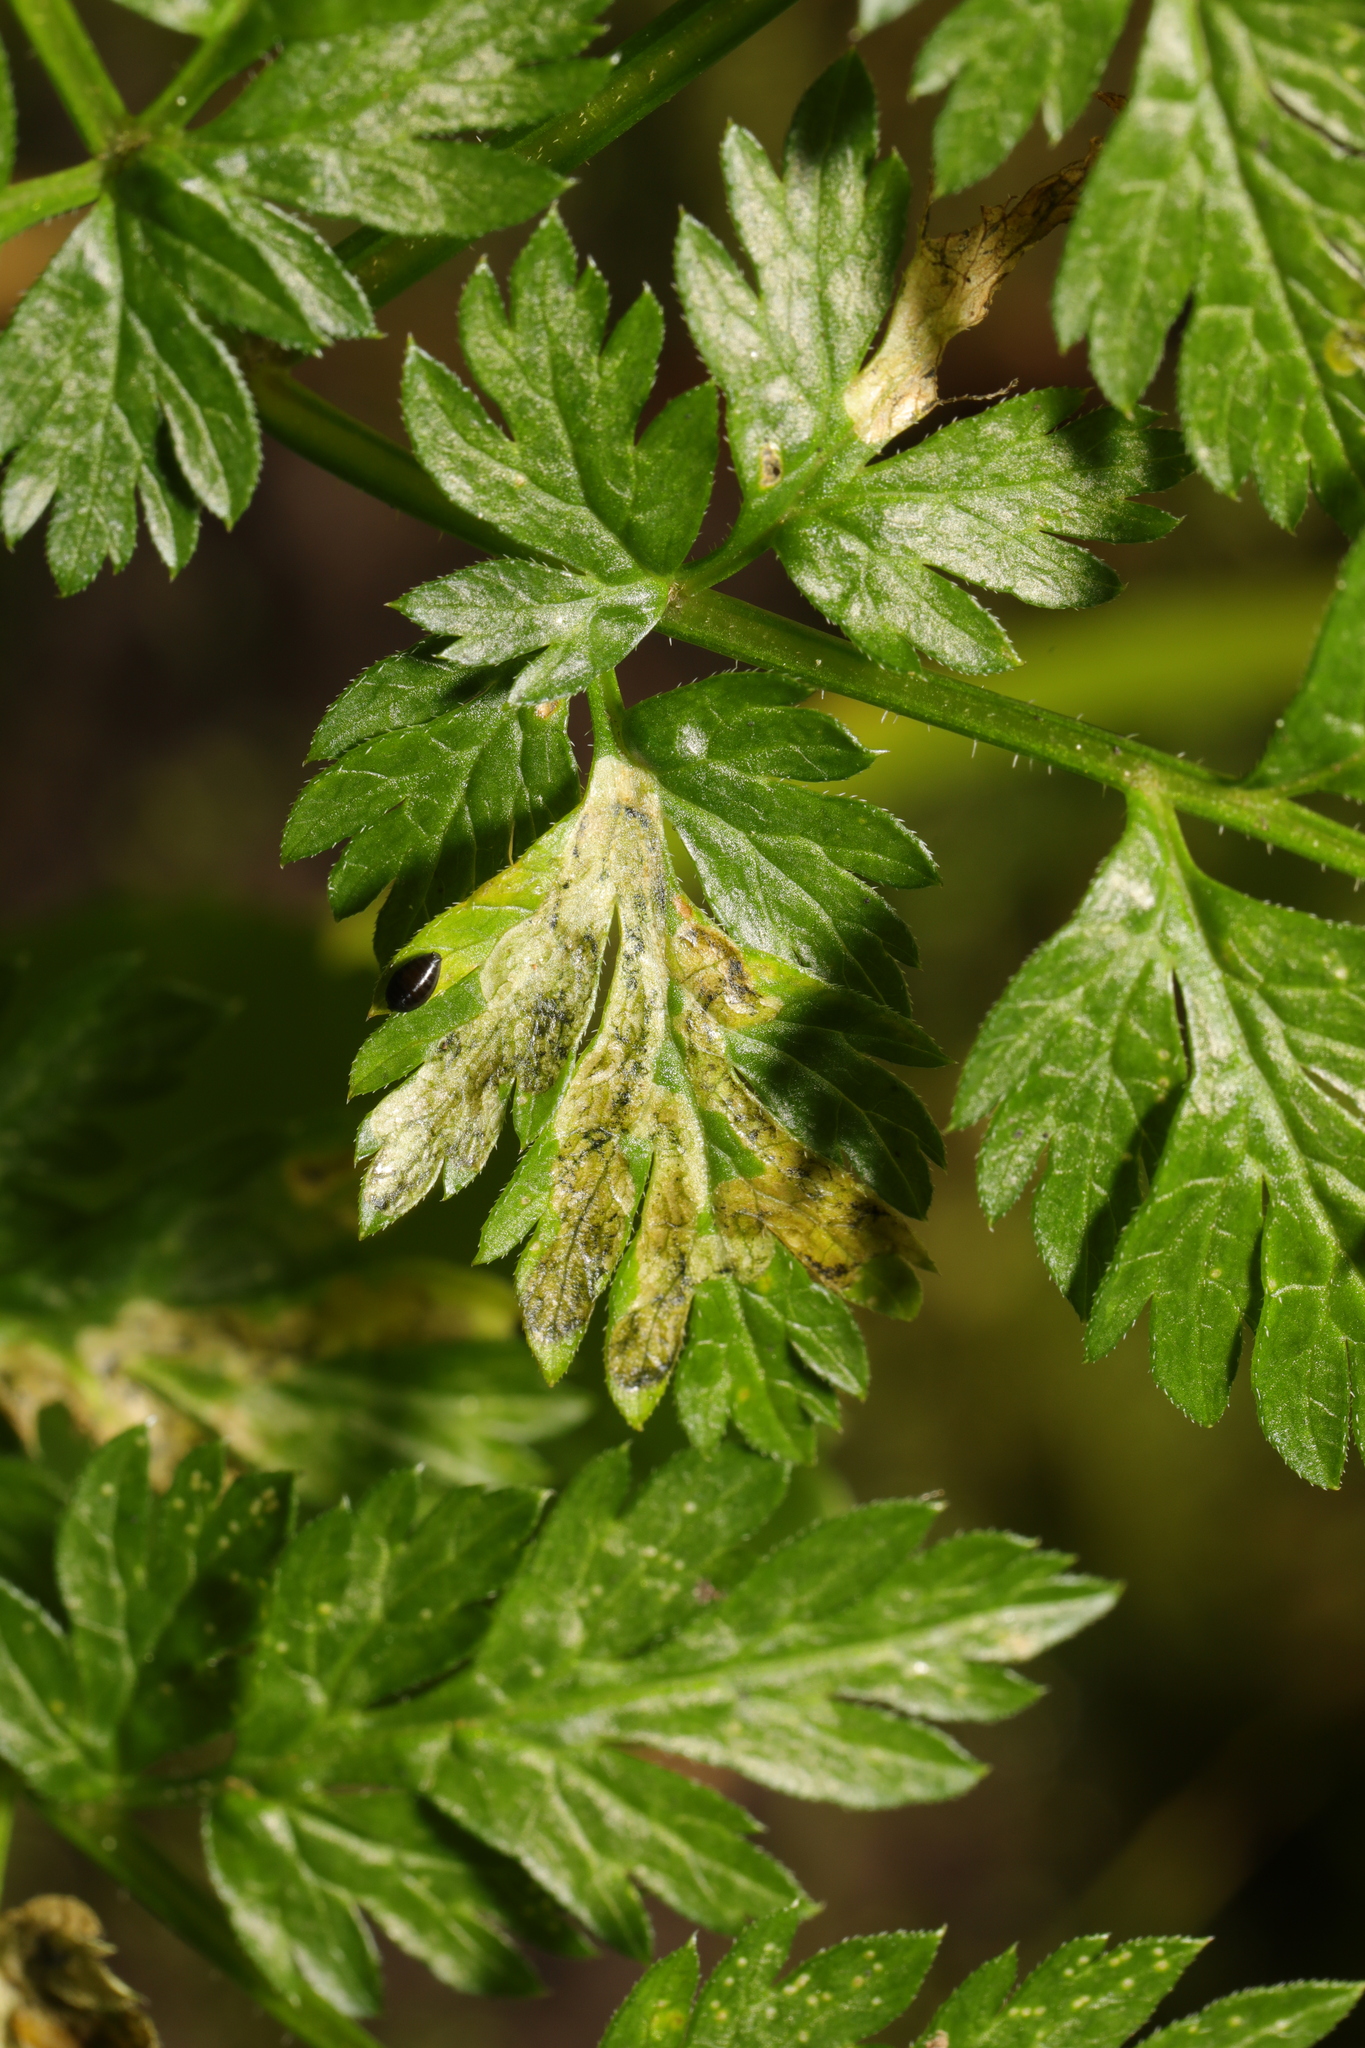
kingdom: Animalia
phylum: Arthropoda
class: Insecta
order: Diptera
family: Agromyzidae
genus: Phytomyza
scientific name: Phytomyza chaerophylli
